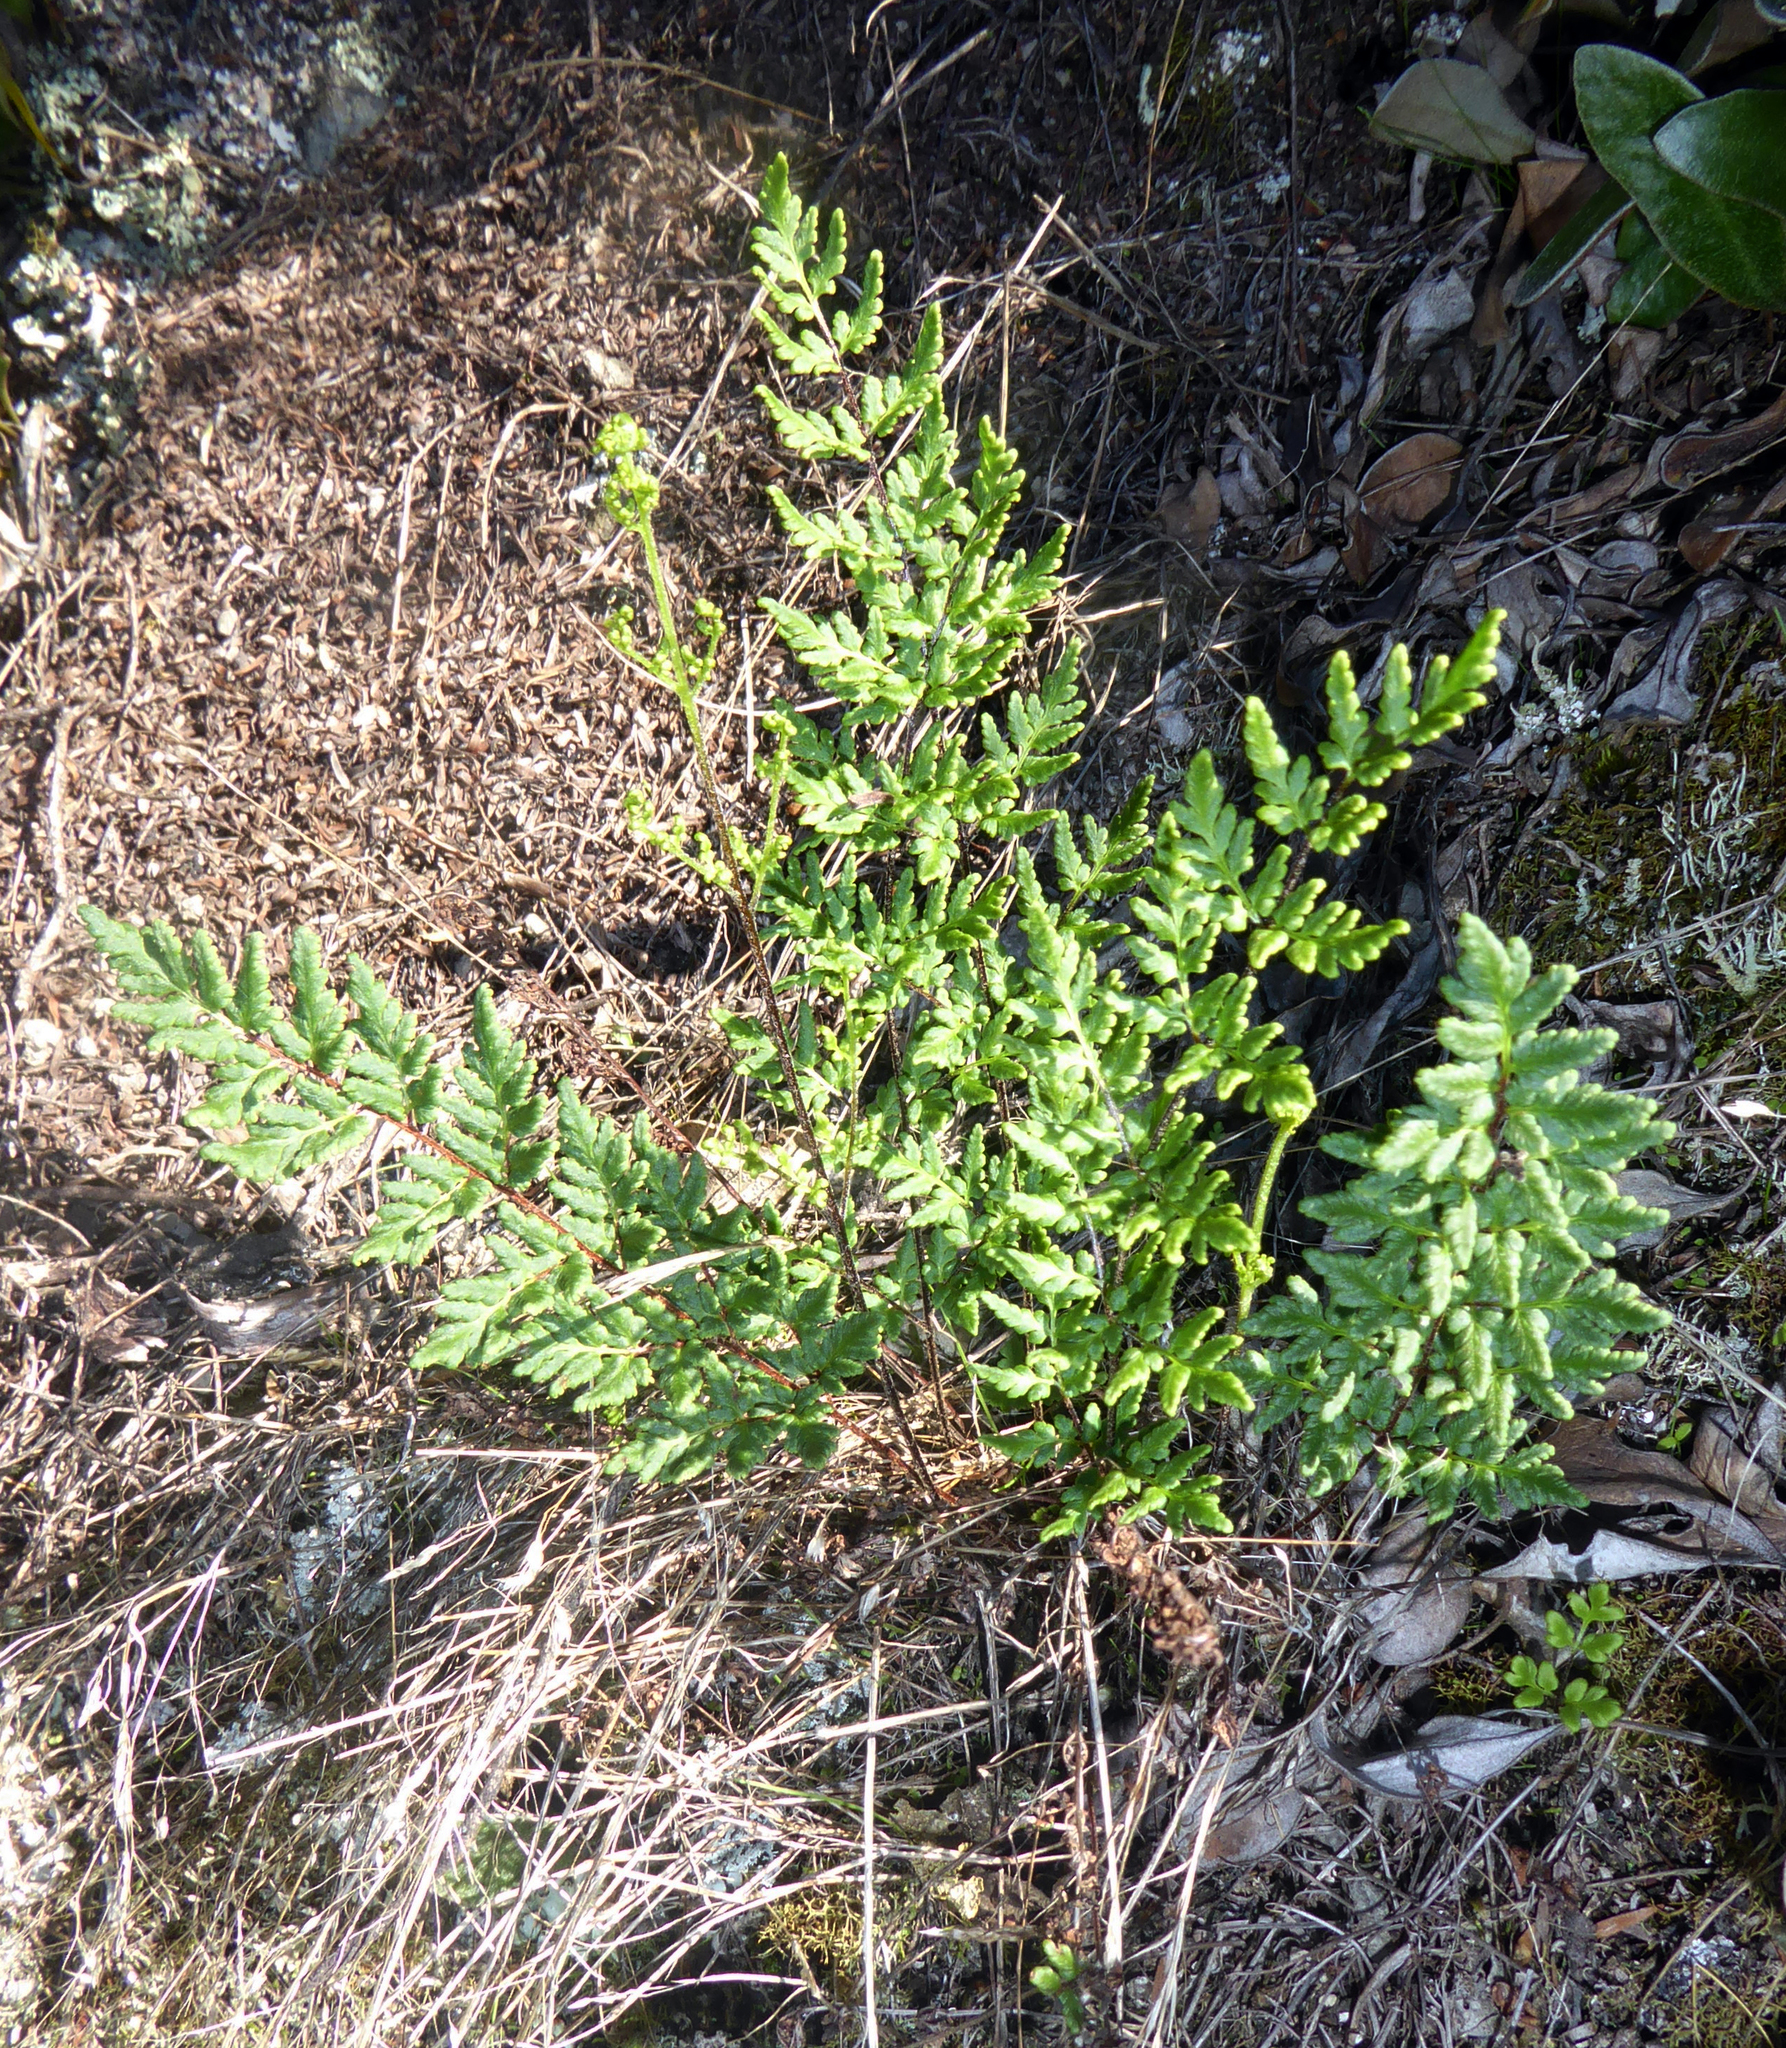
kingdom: Plantae
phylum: Tracheophyta
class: Polypodiopsida
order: Polypodiales
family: Pteridaceae
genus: Cheilanthes
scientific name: Cheilanthes sieberi
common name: Mulga fern
